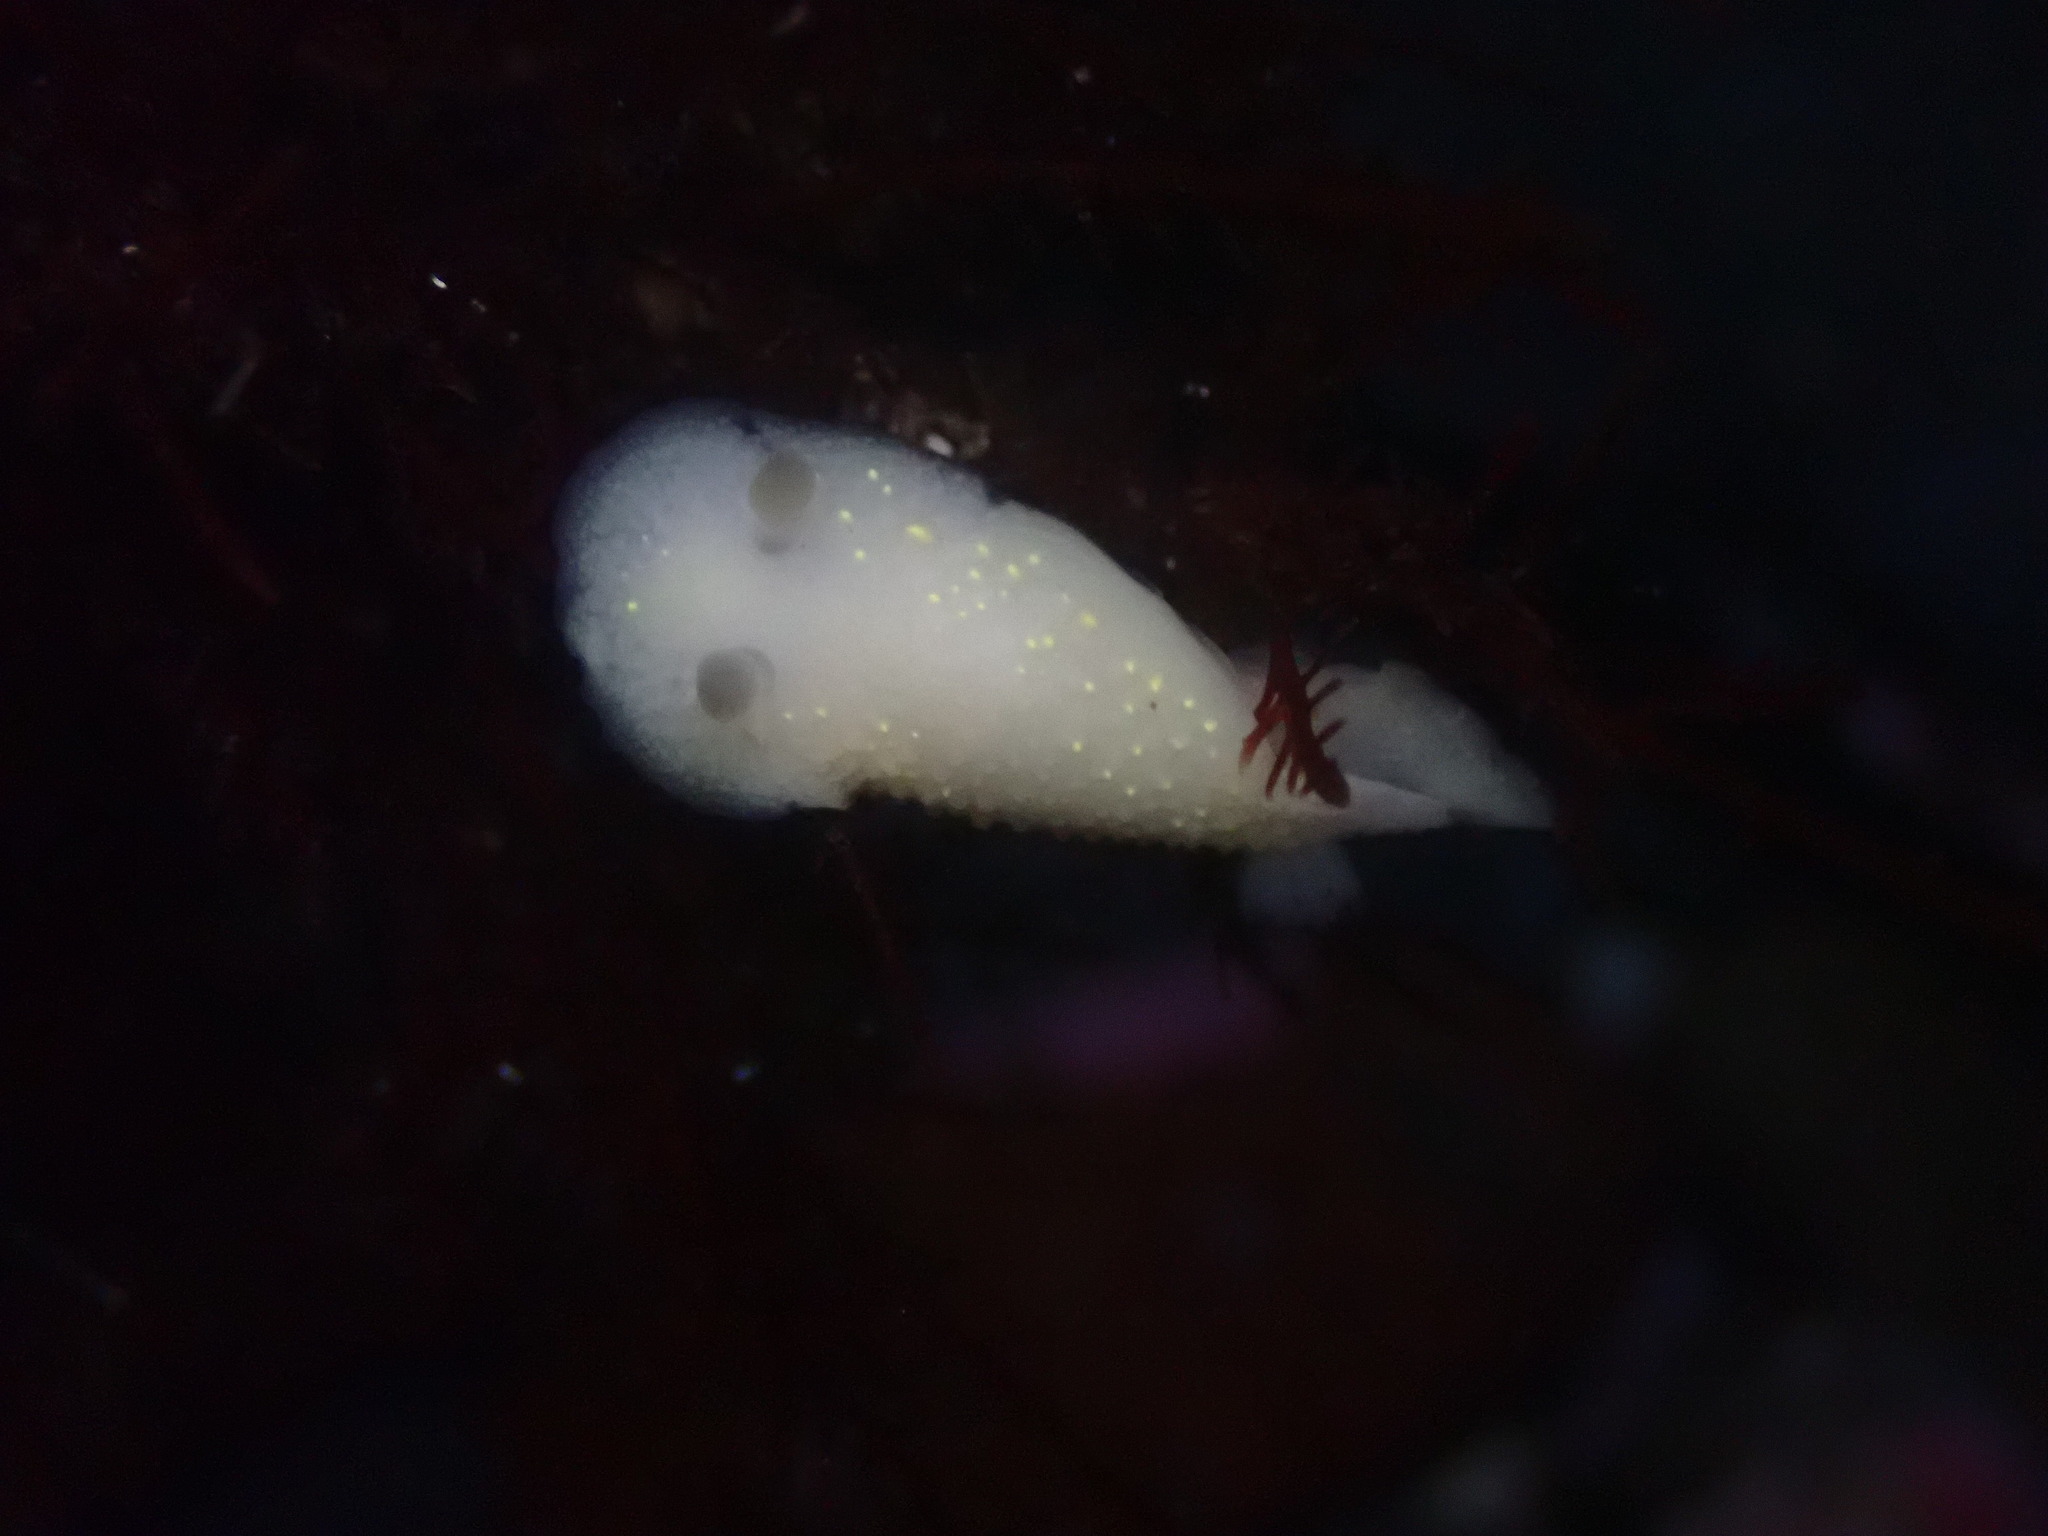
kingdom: Animalia
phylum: Mollusca
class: Gastropoda
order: Nudibranchia
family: Cadlinidae
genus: Cadlina
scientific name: Cadlina modesta
